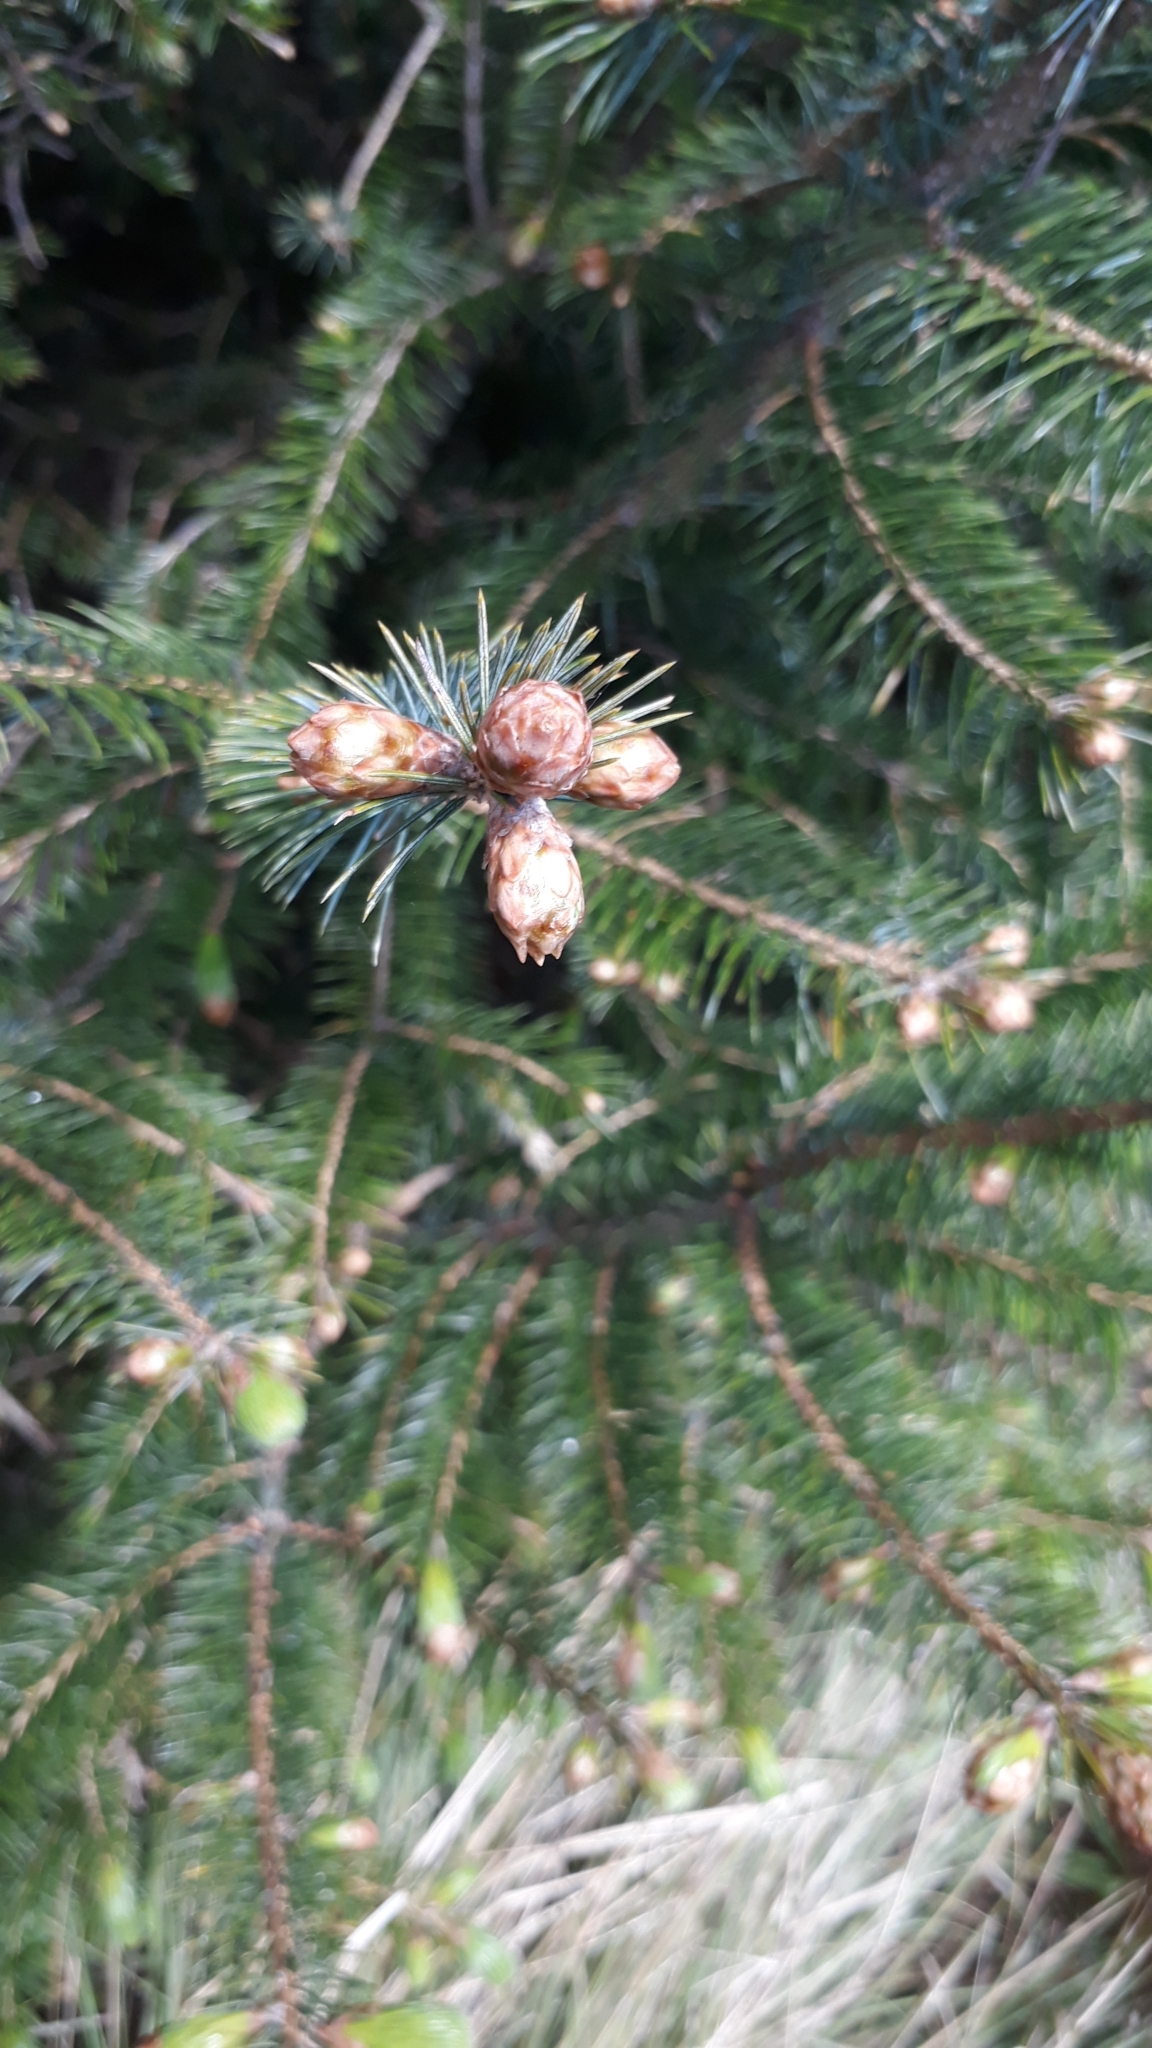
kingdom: Plantae
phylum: Tracheophyta
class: Pinopsida
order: Pinales
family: Pinaceae
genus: Pseudotsuga
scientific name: Pseudotsuga menziesii
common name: Douglas fir
